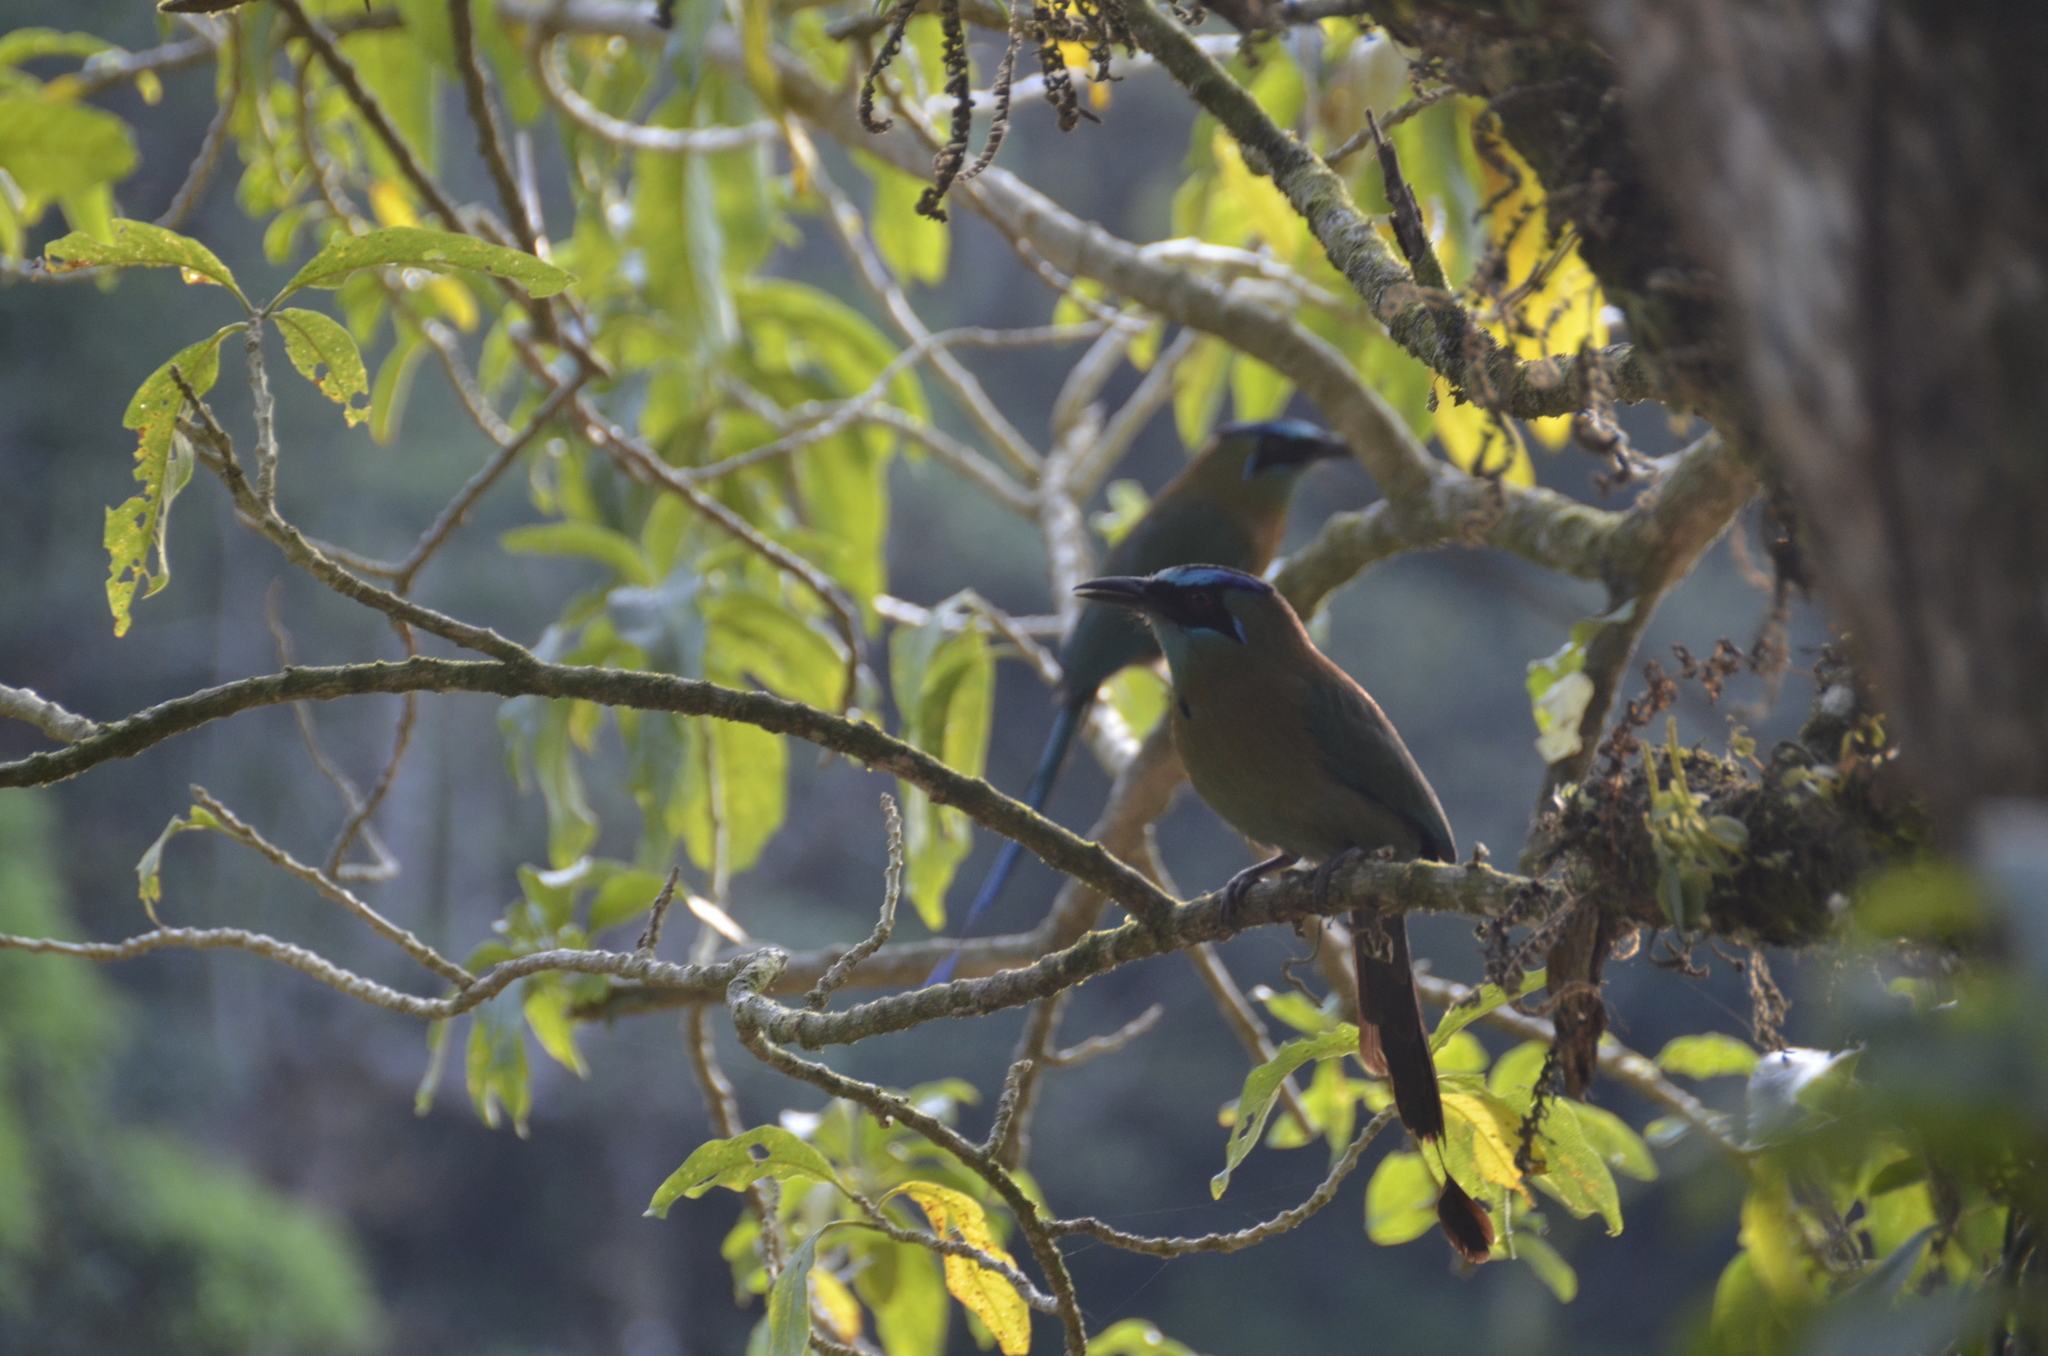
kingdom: Animalia
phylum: Chordata
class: Aves
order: Coraciiformes
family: Momotidae
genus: Momotus
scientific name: Momotus lessonii
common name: Lesson's motmot
